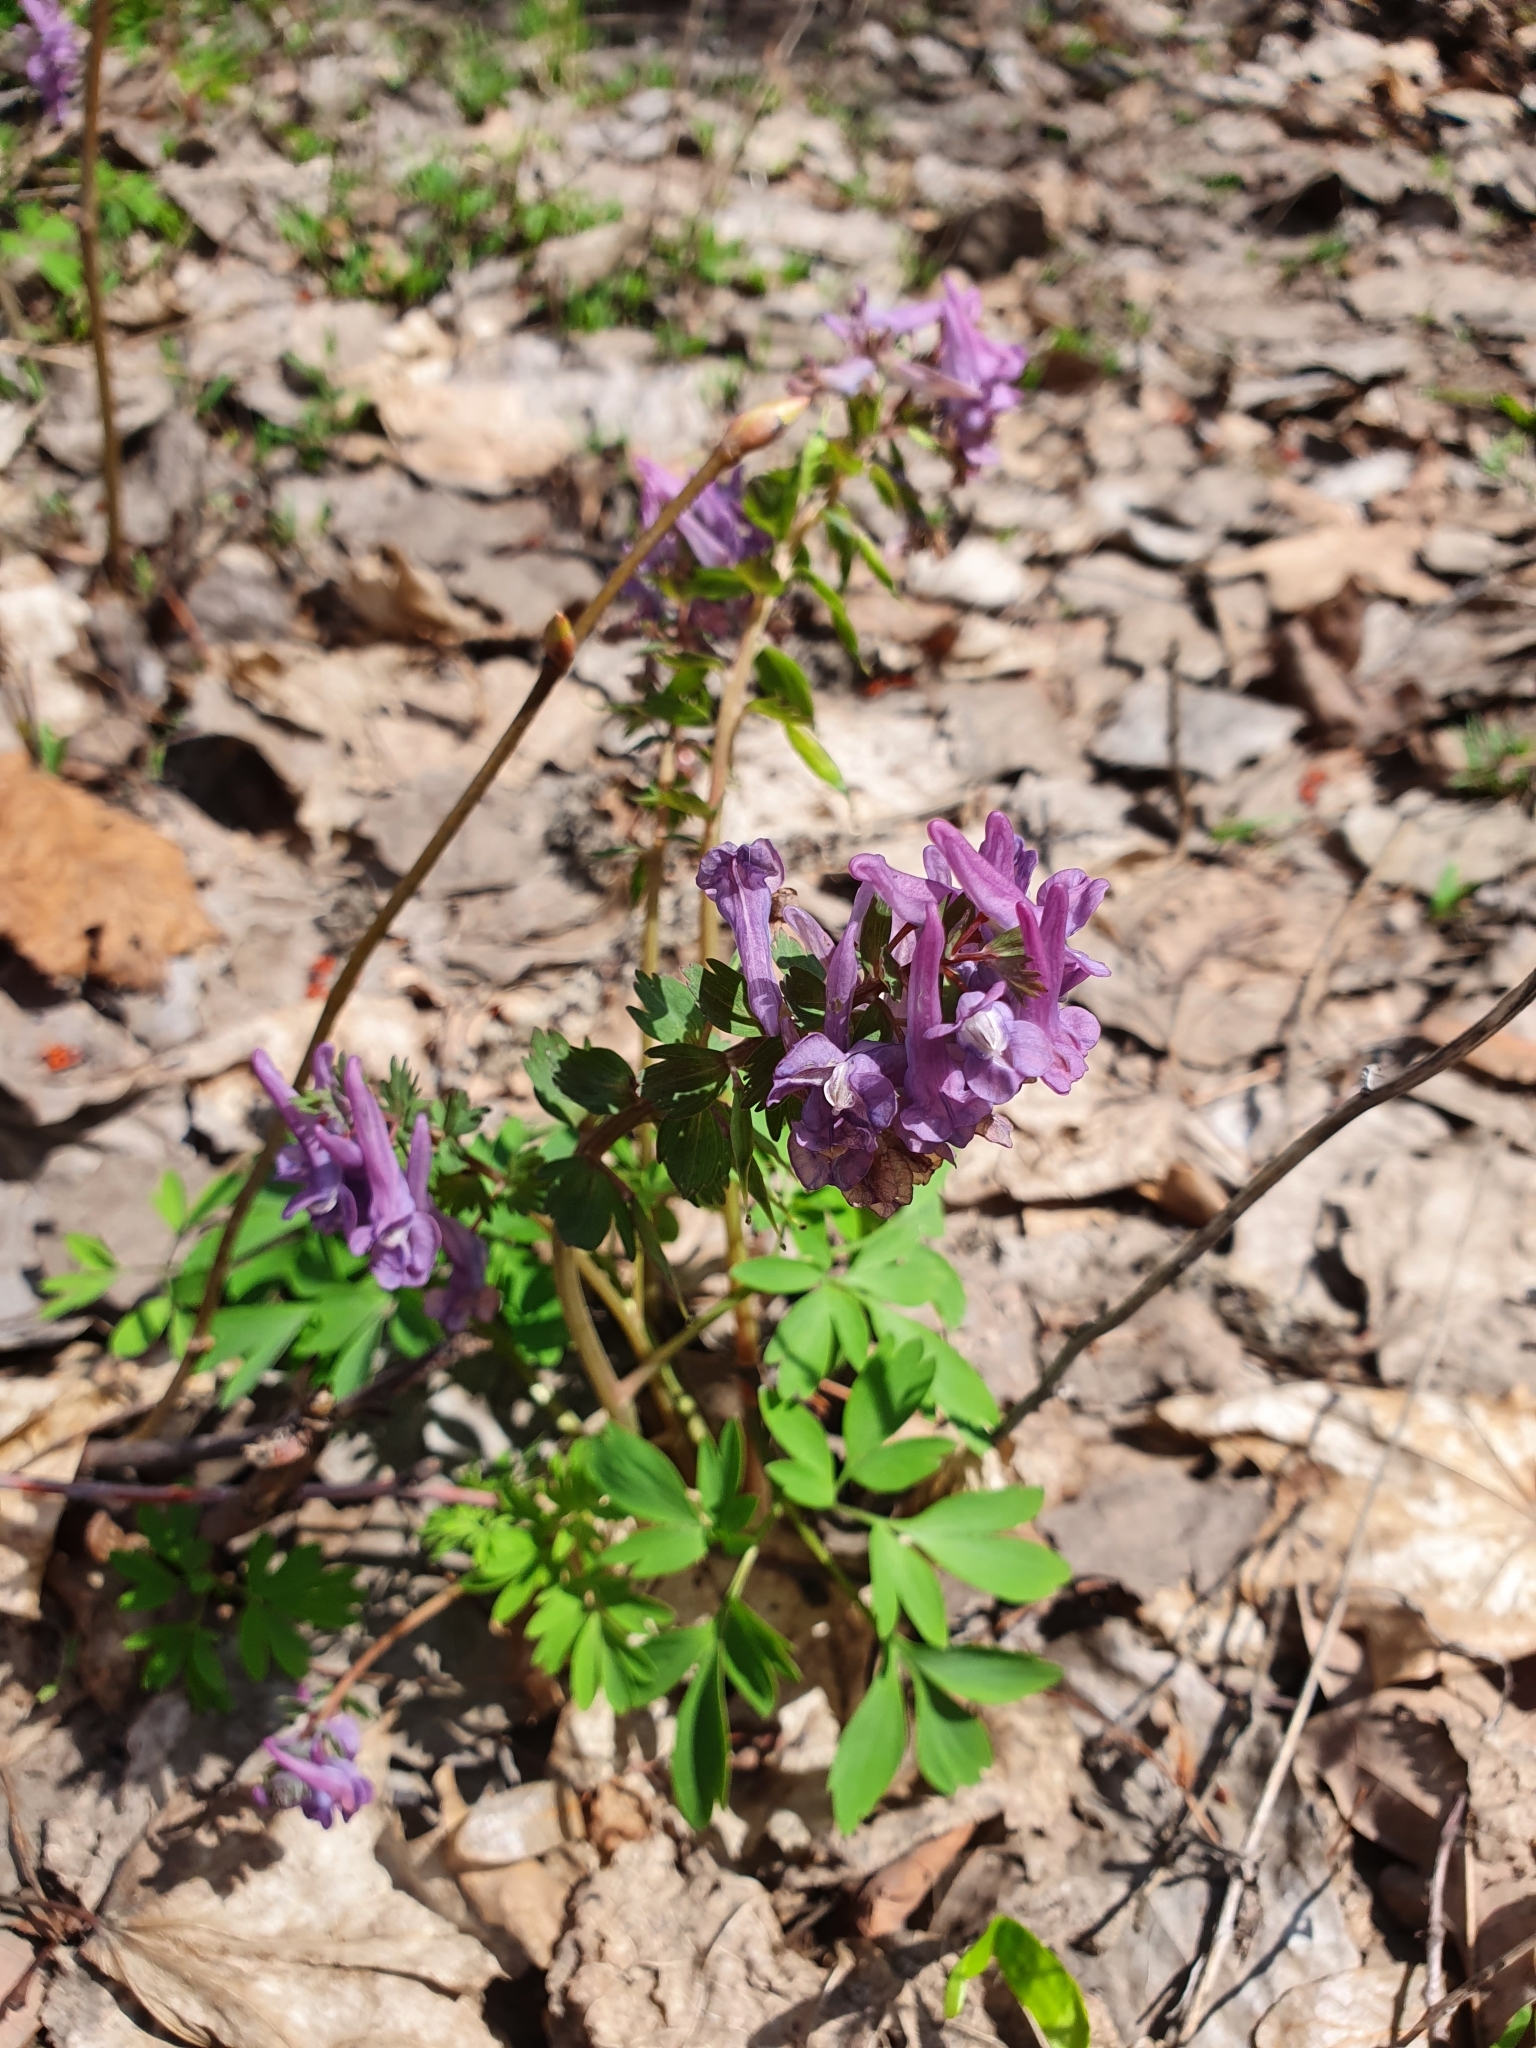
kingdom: Plantae
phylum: Tracheophyta
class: Magnoliopsida
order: Ranunculales
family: Papaveraceae
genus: Corydalis
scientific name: Corydalis solida
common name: Bird-in-a-bush
